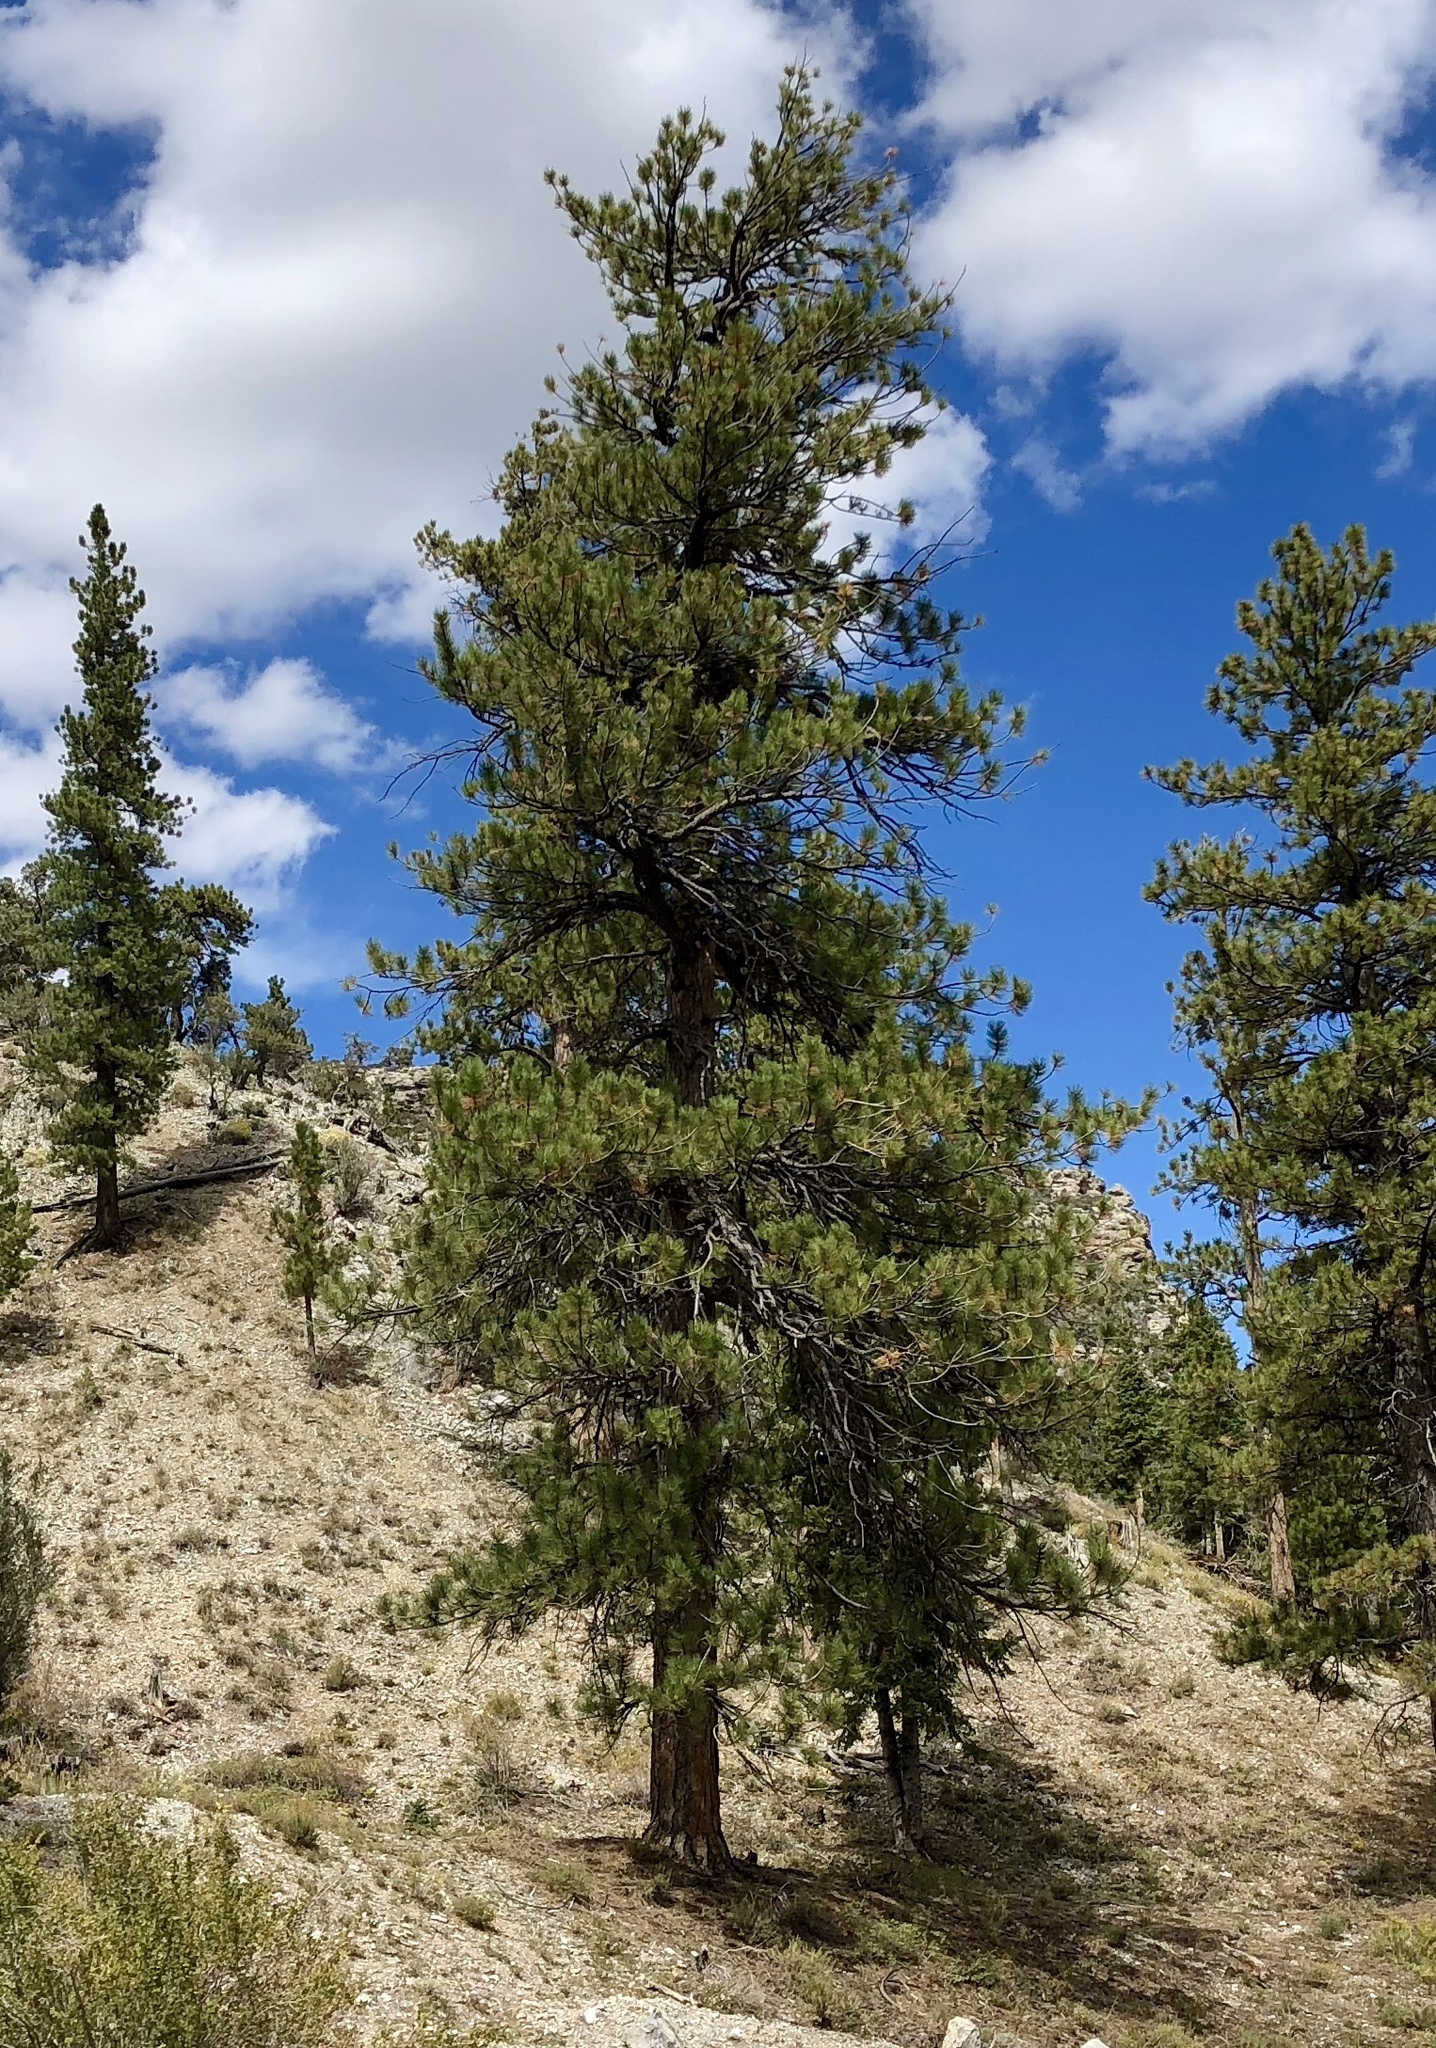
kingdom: Plantae
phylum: Tracheophyta
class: Pinopsida
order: Pinales
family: Pinaceae
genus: Pinus
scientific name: Pinus ponderosa
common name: Western yellow-pine
